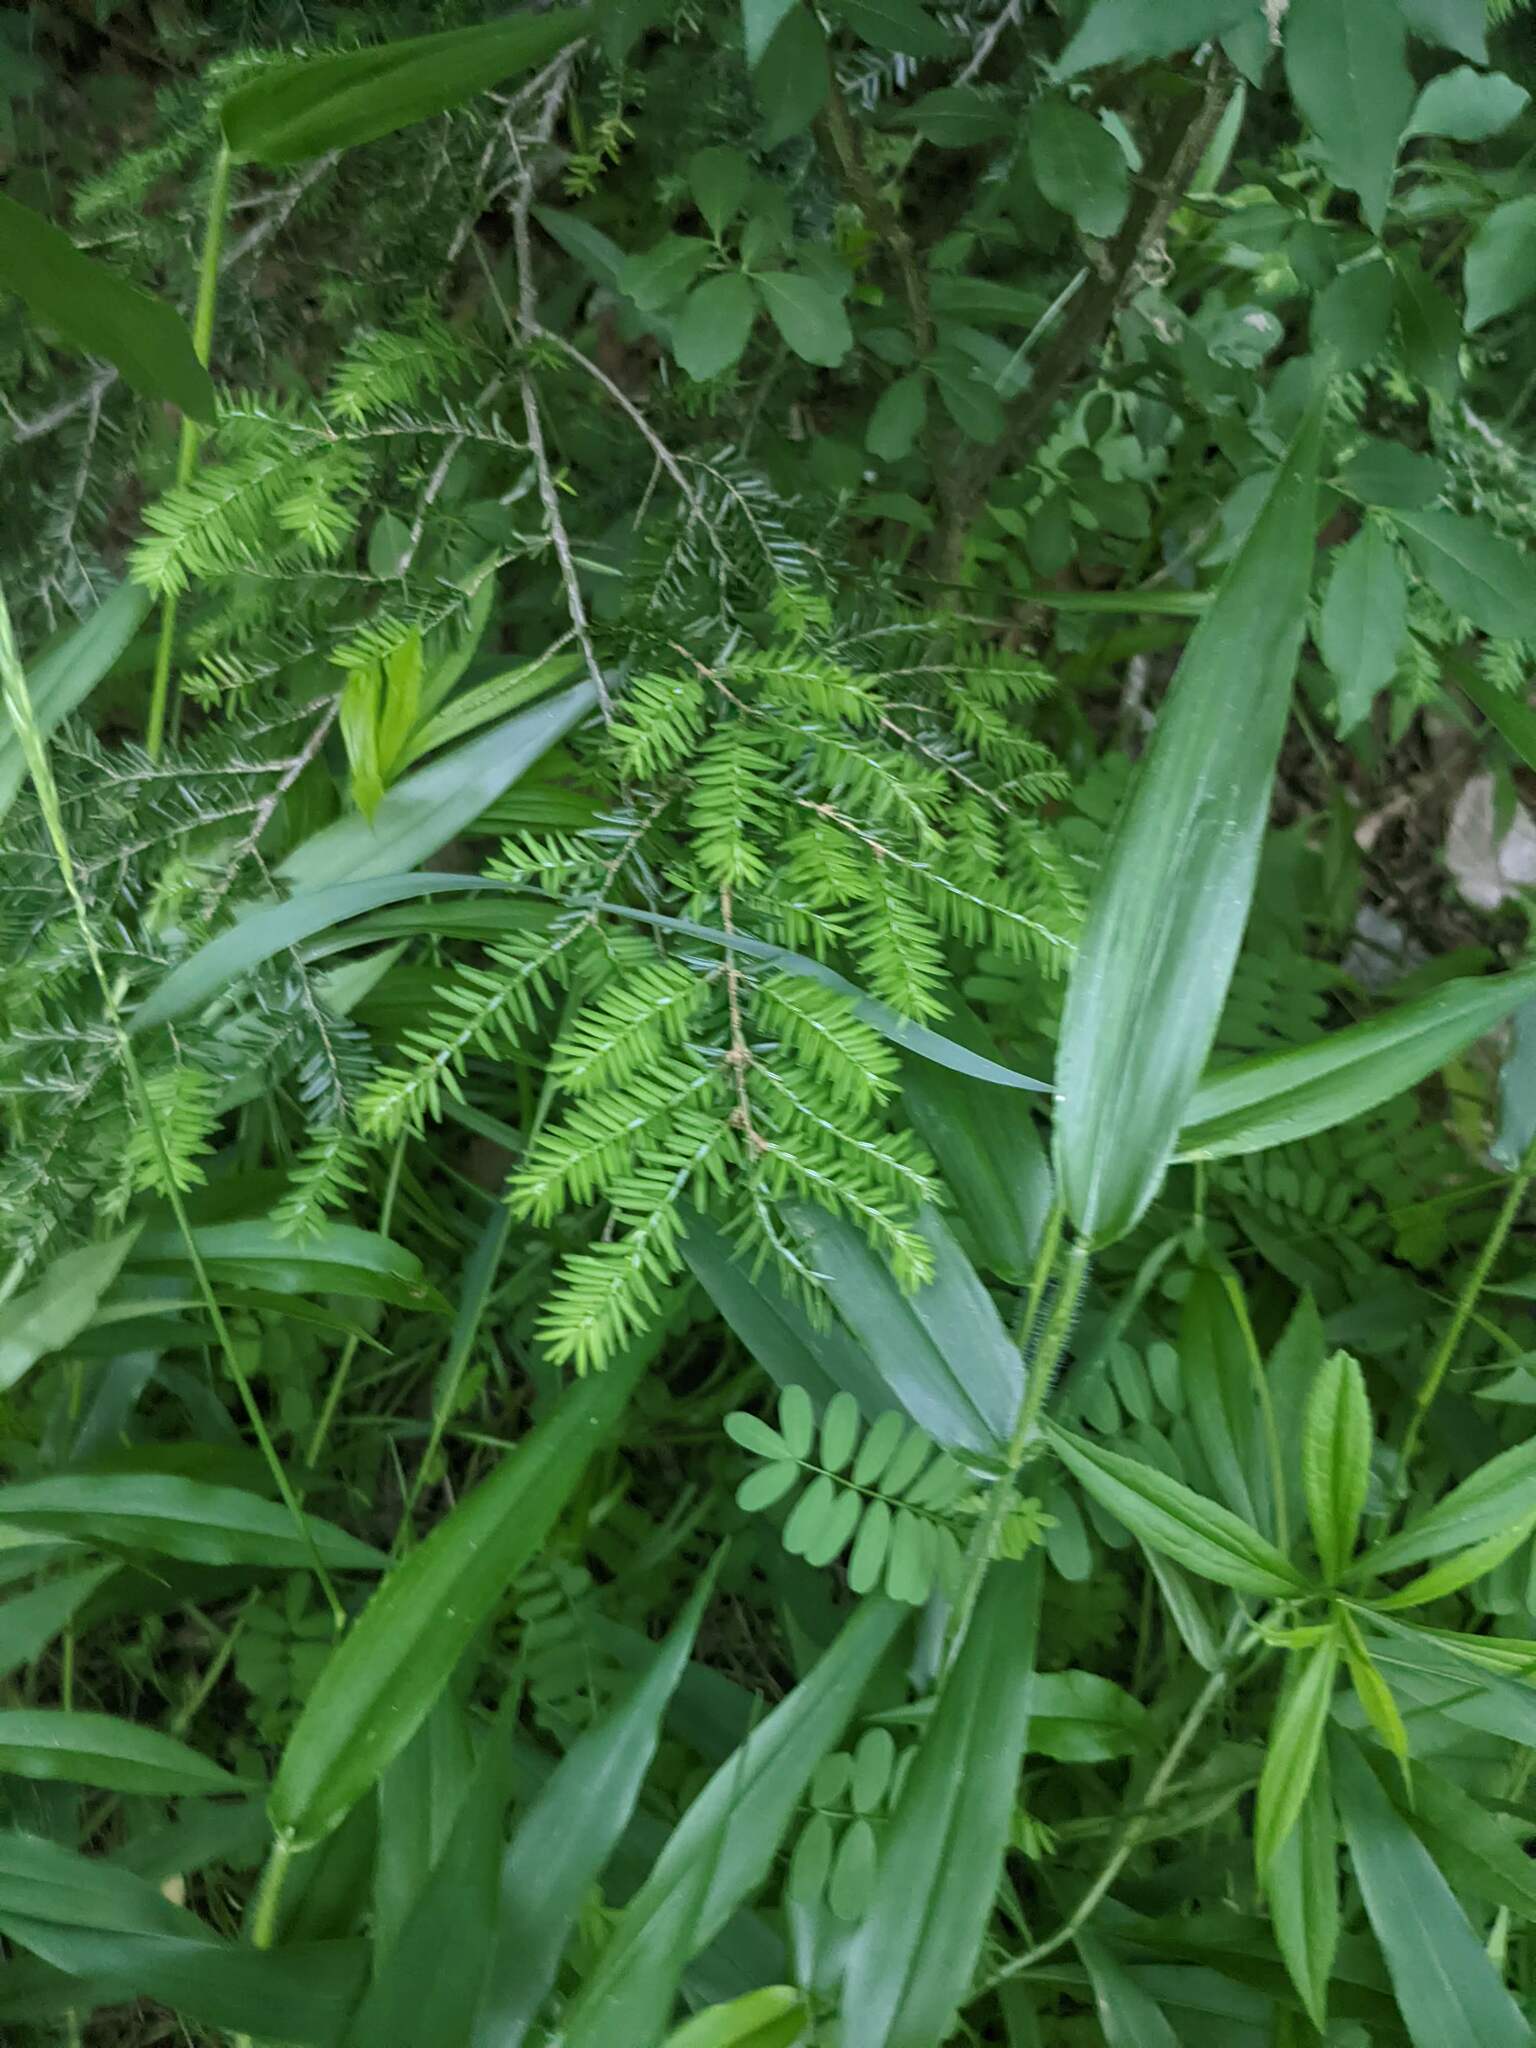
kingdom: Plantae
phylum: Tracheophyta
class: Pinopsida
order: Pinales
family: Pinaceae
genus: Tsuga
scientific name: Tsuga canadensis
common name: Eastern hemlock
